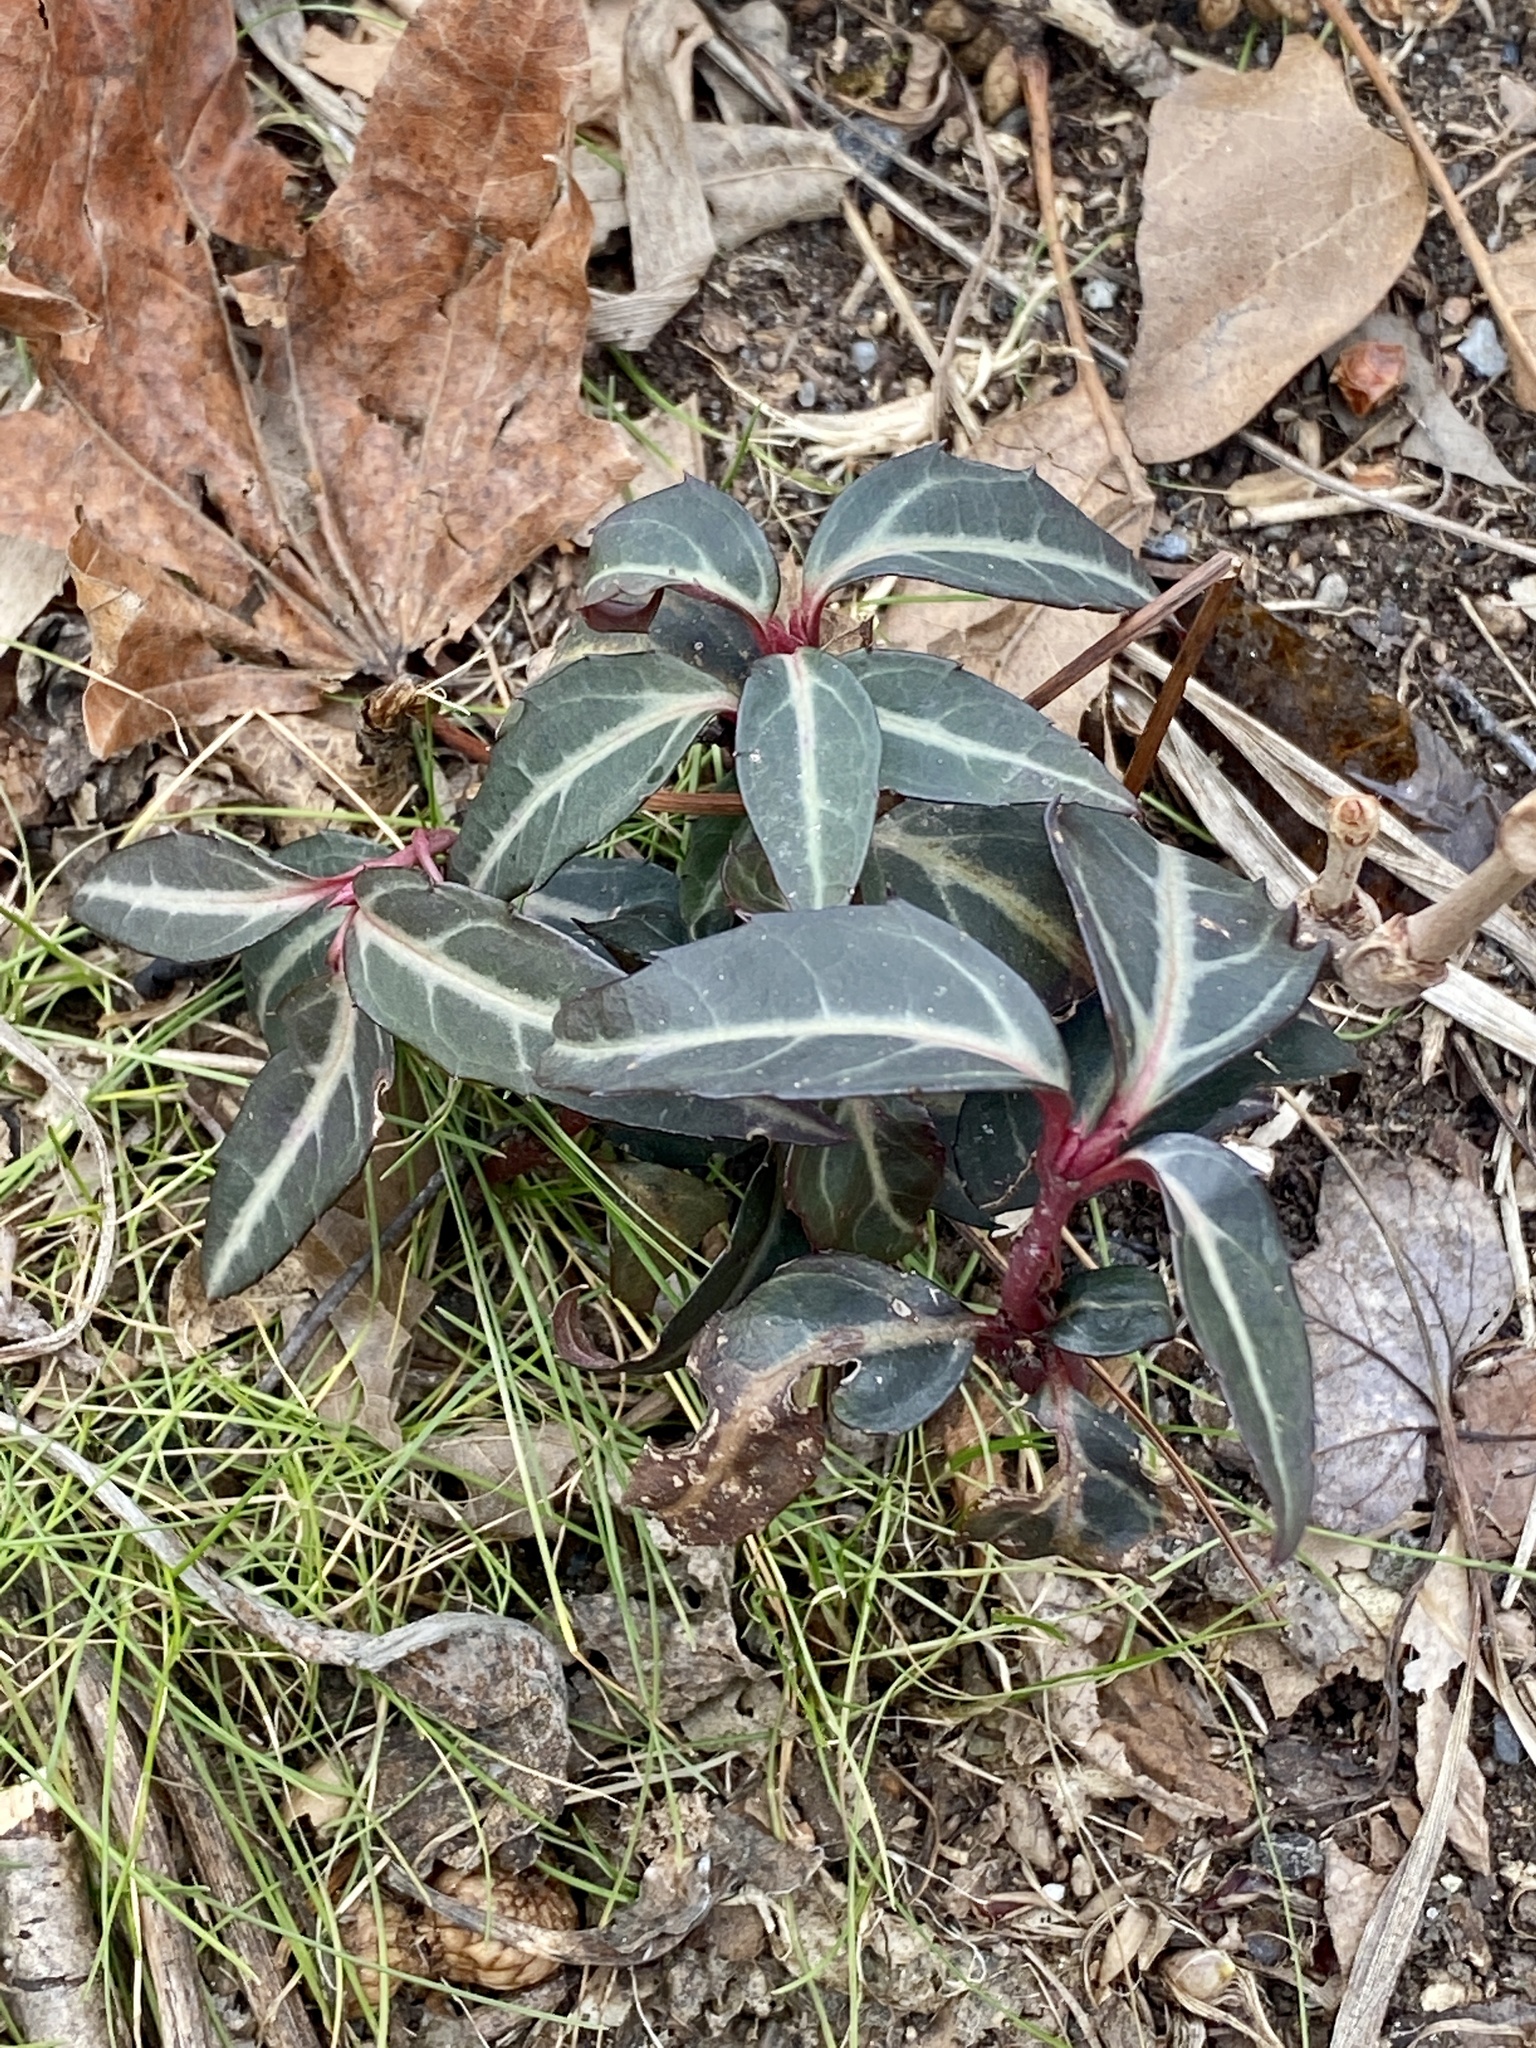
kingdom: Plantae
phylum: Tracheophyta
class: Magnoliopsida
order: Ericales
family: Ericaceae
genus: Chimaphila
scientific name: Chimaphila maculata
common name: Spotted pipsissewa
